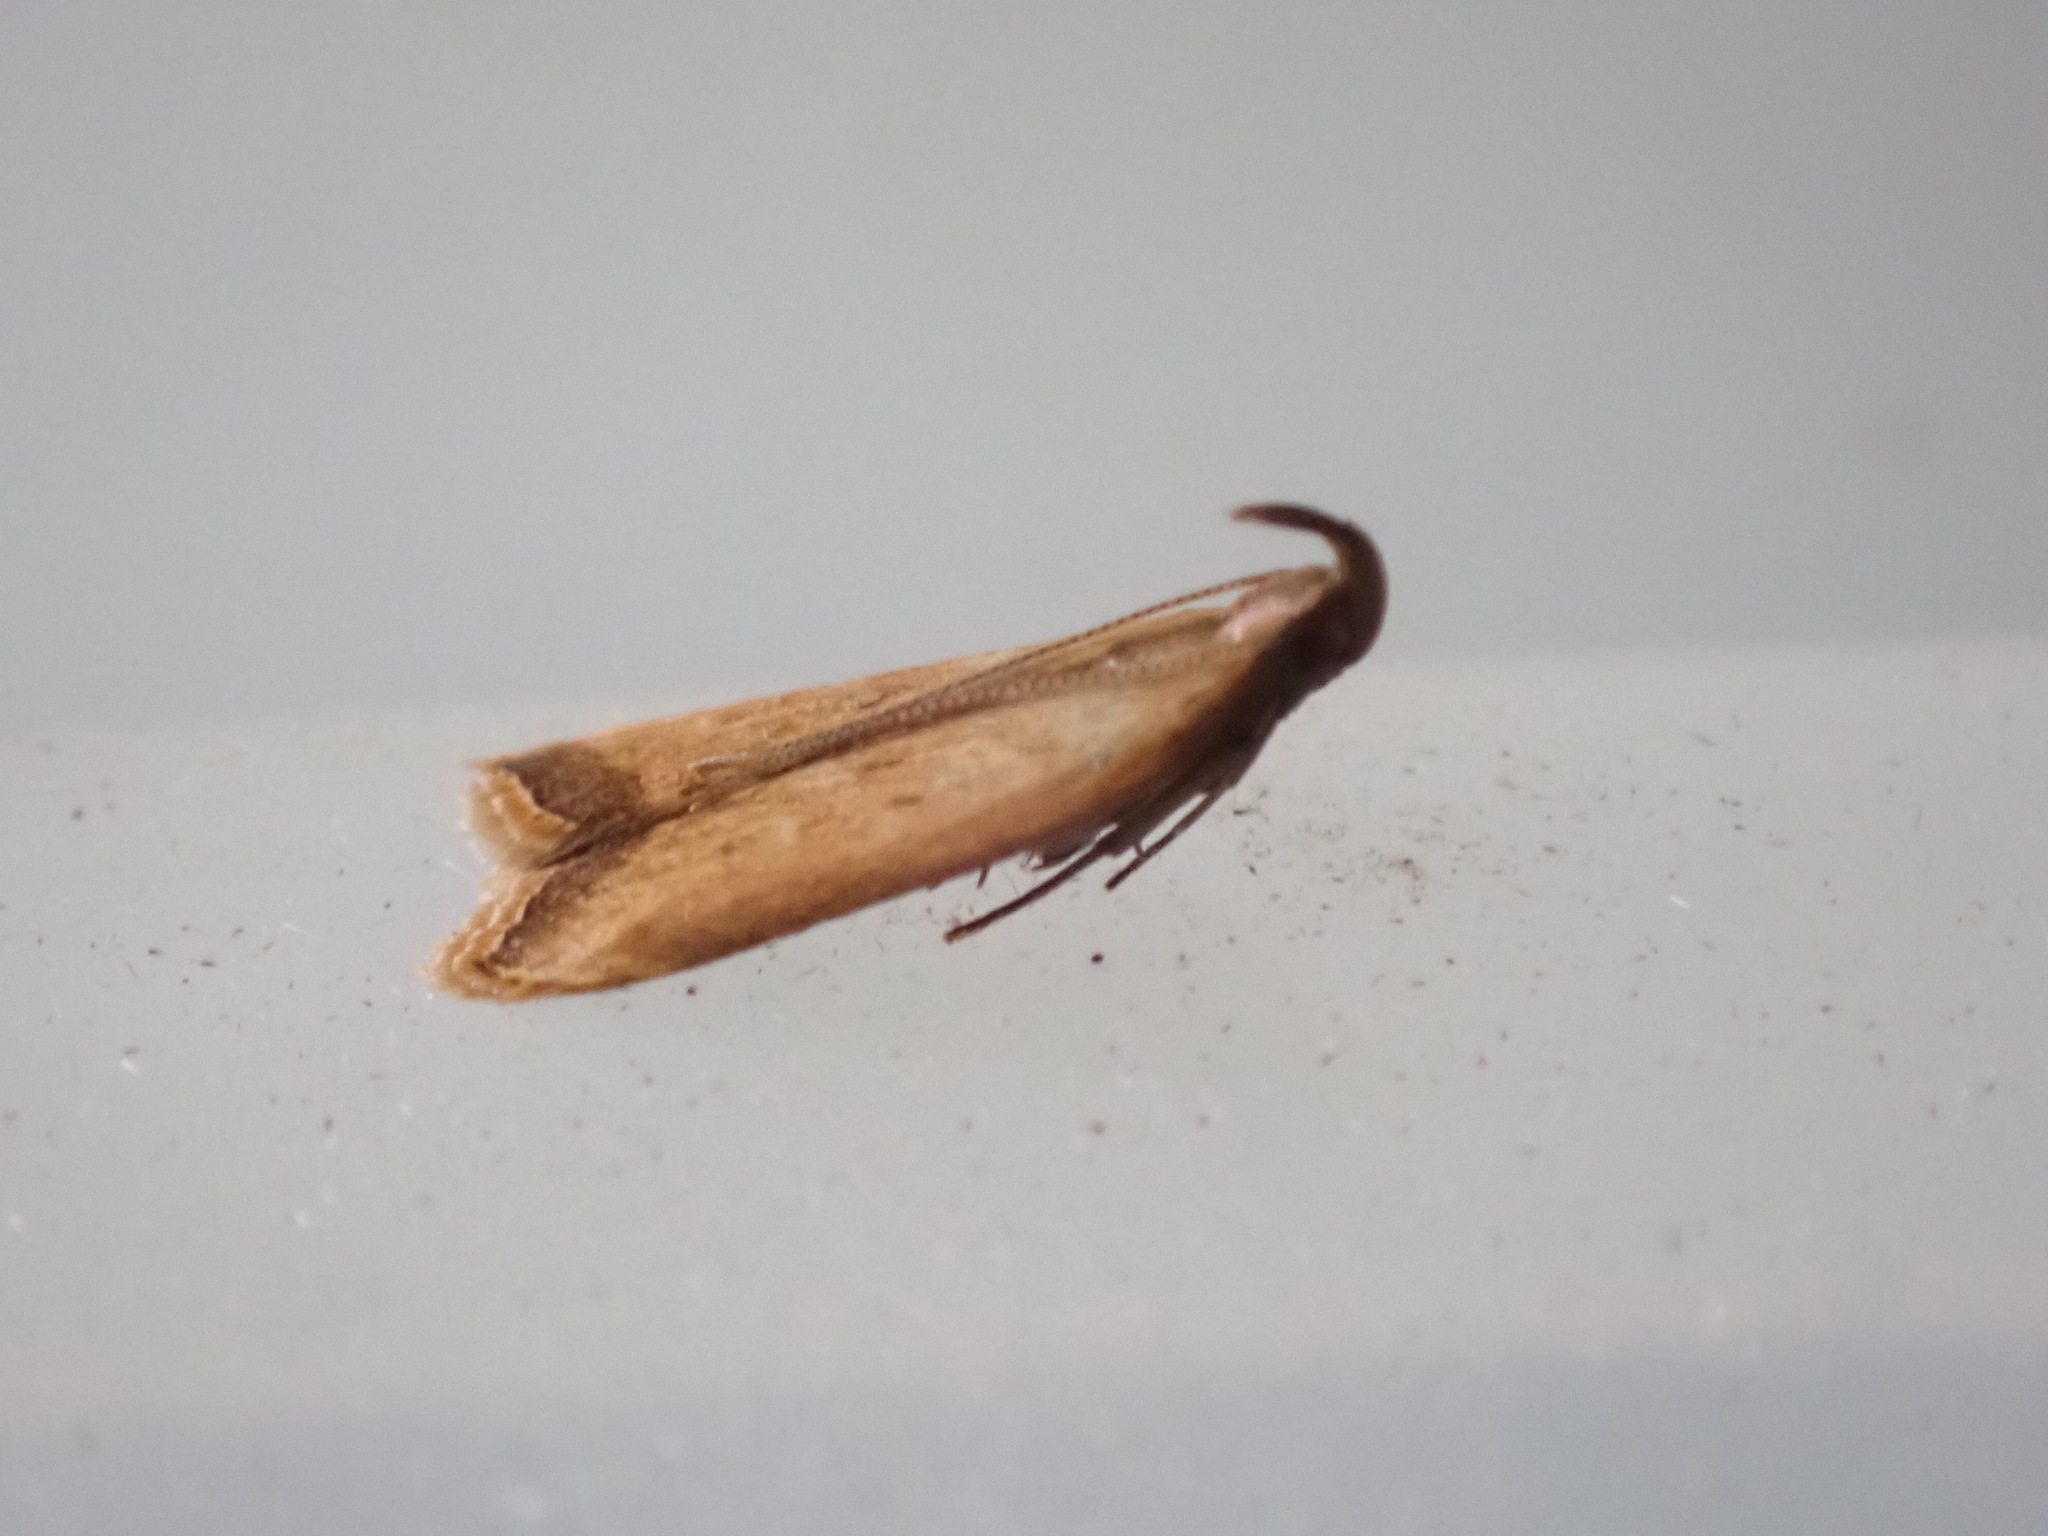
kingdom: Animalia
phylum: Arthropoda
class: Insecta
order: Lepidoptera
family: Gelechiidae
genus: Dichomeris
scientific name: Dichomeris heriguronis
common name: Black-edged dichomeris moth
